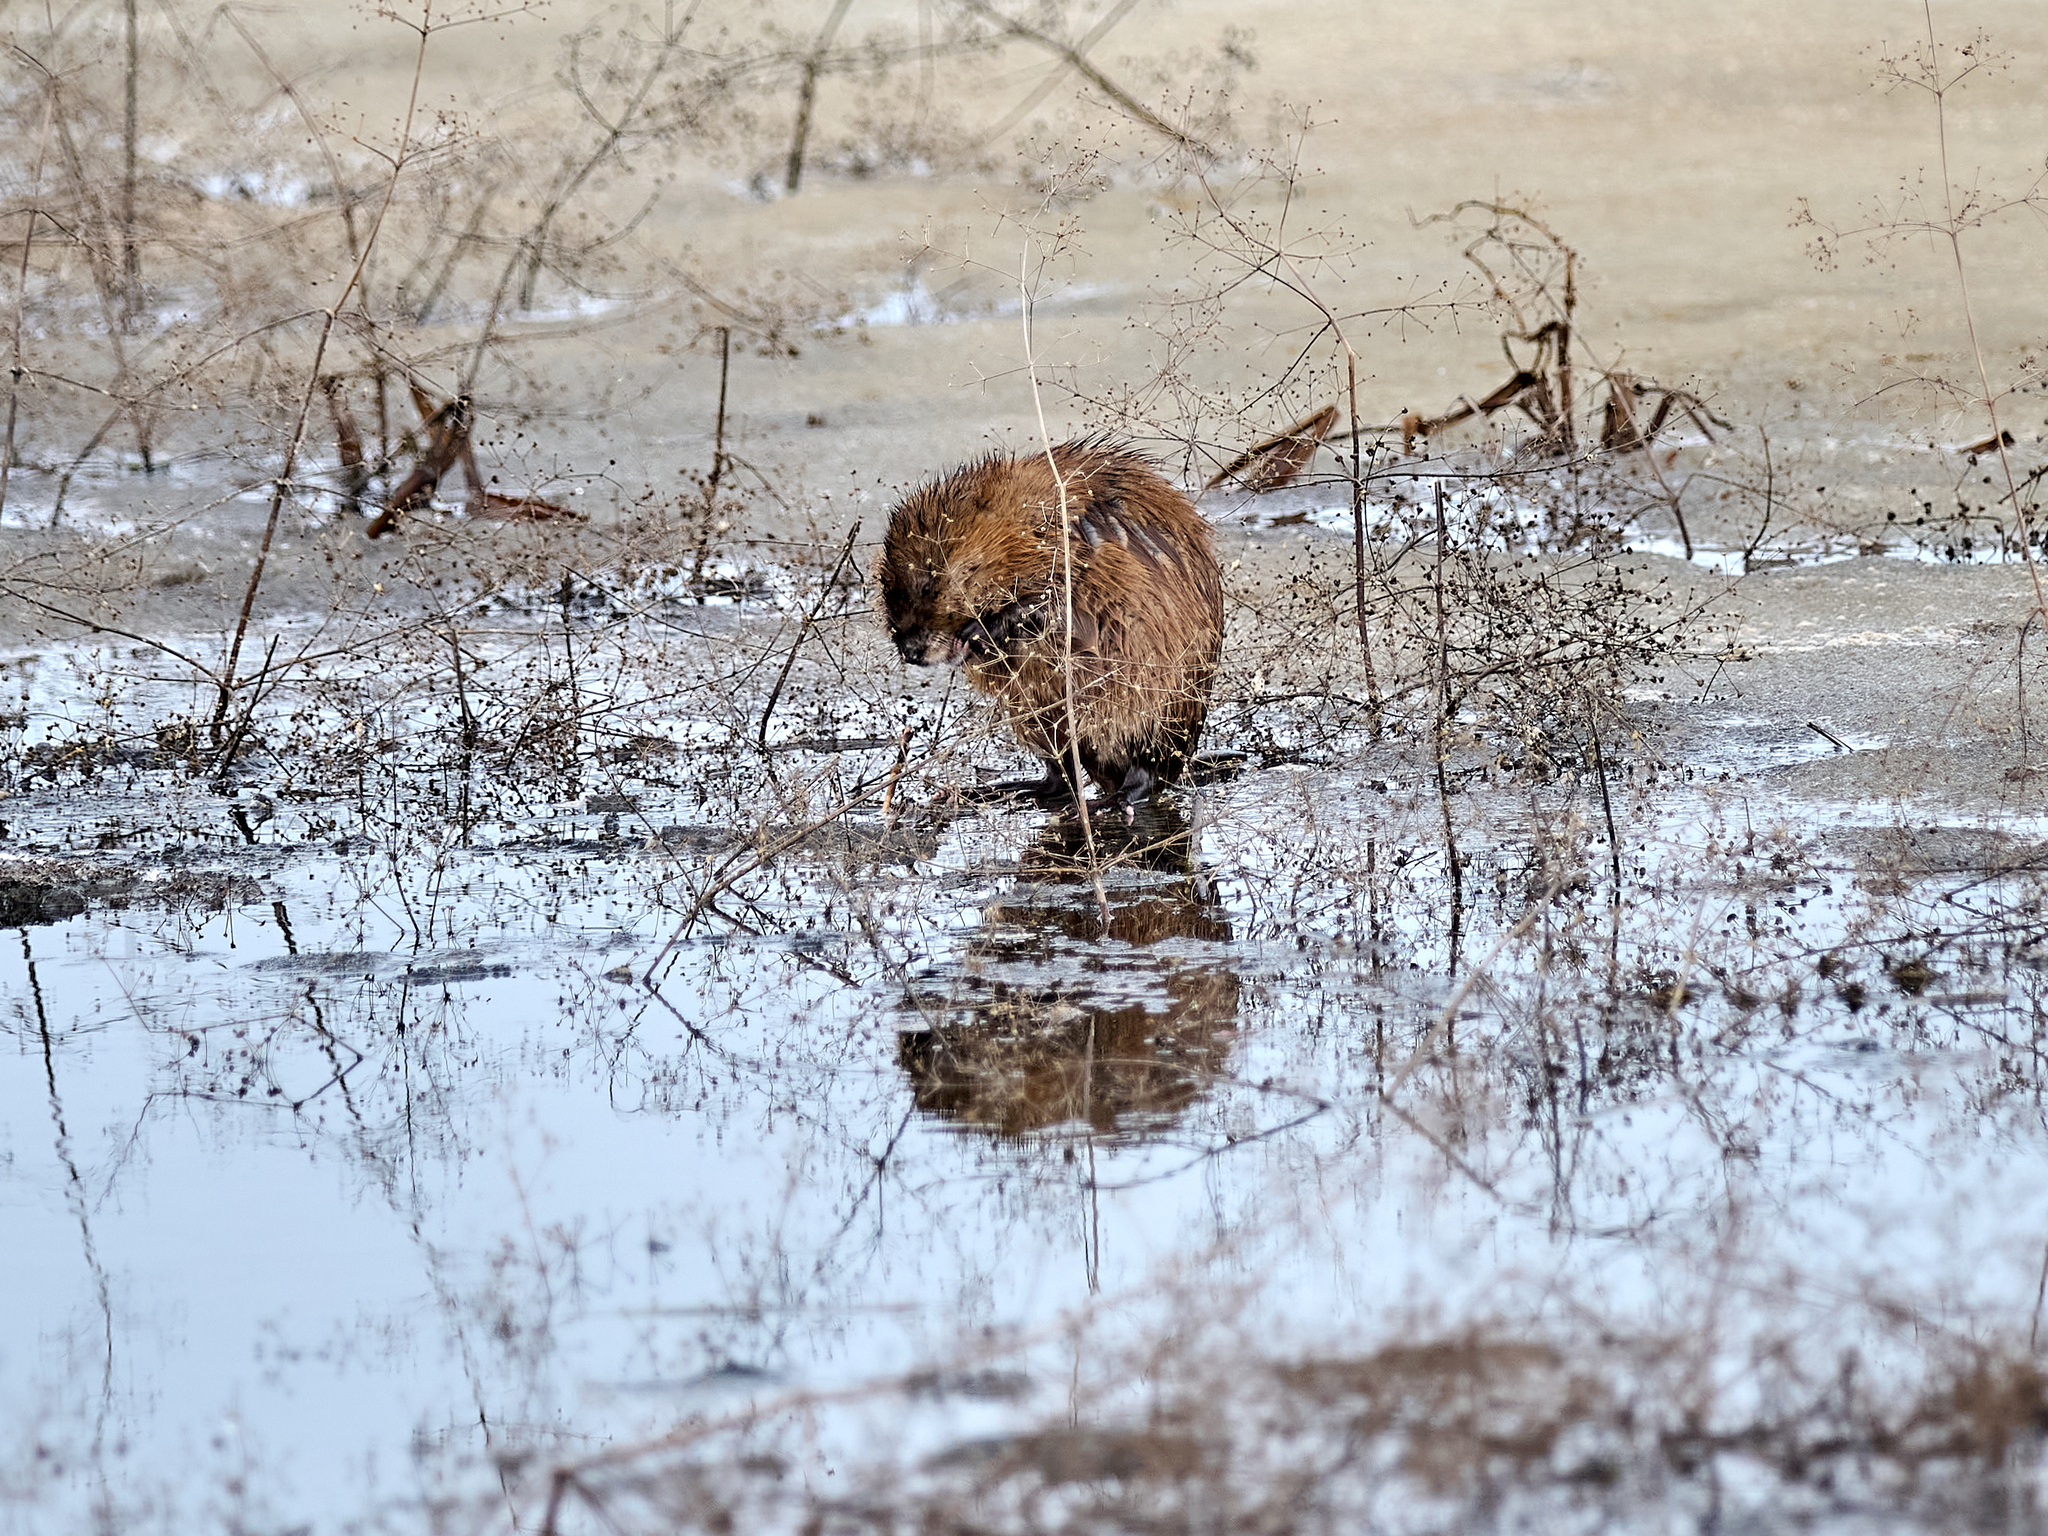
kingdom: Animalia
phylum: Chordata
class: Mammalia
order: Rodentia
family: Cricetidae
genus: Ondatra
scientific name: Ondatra zibethicus
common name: Muskrat
